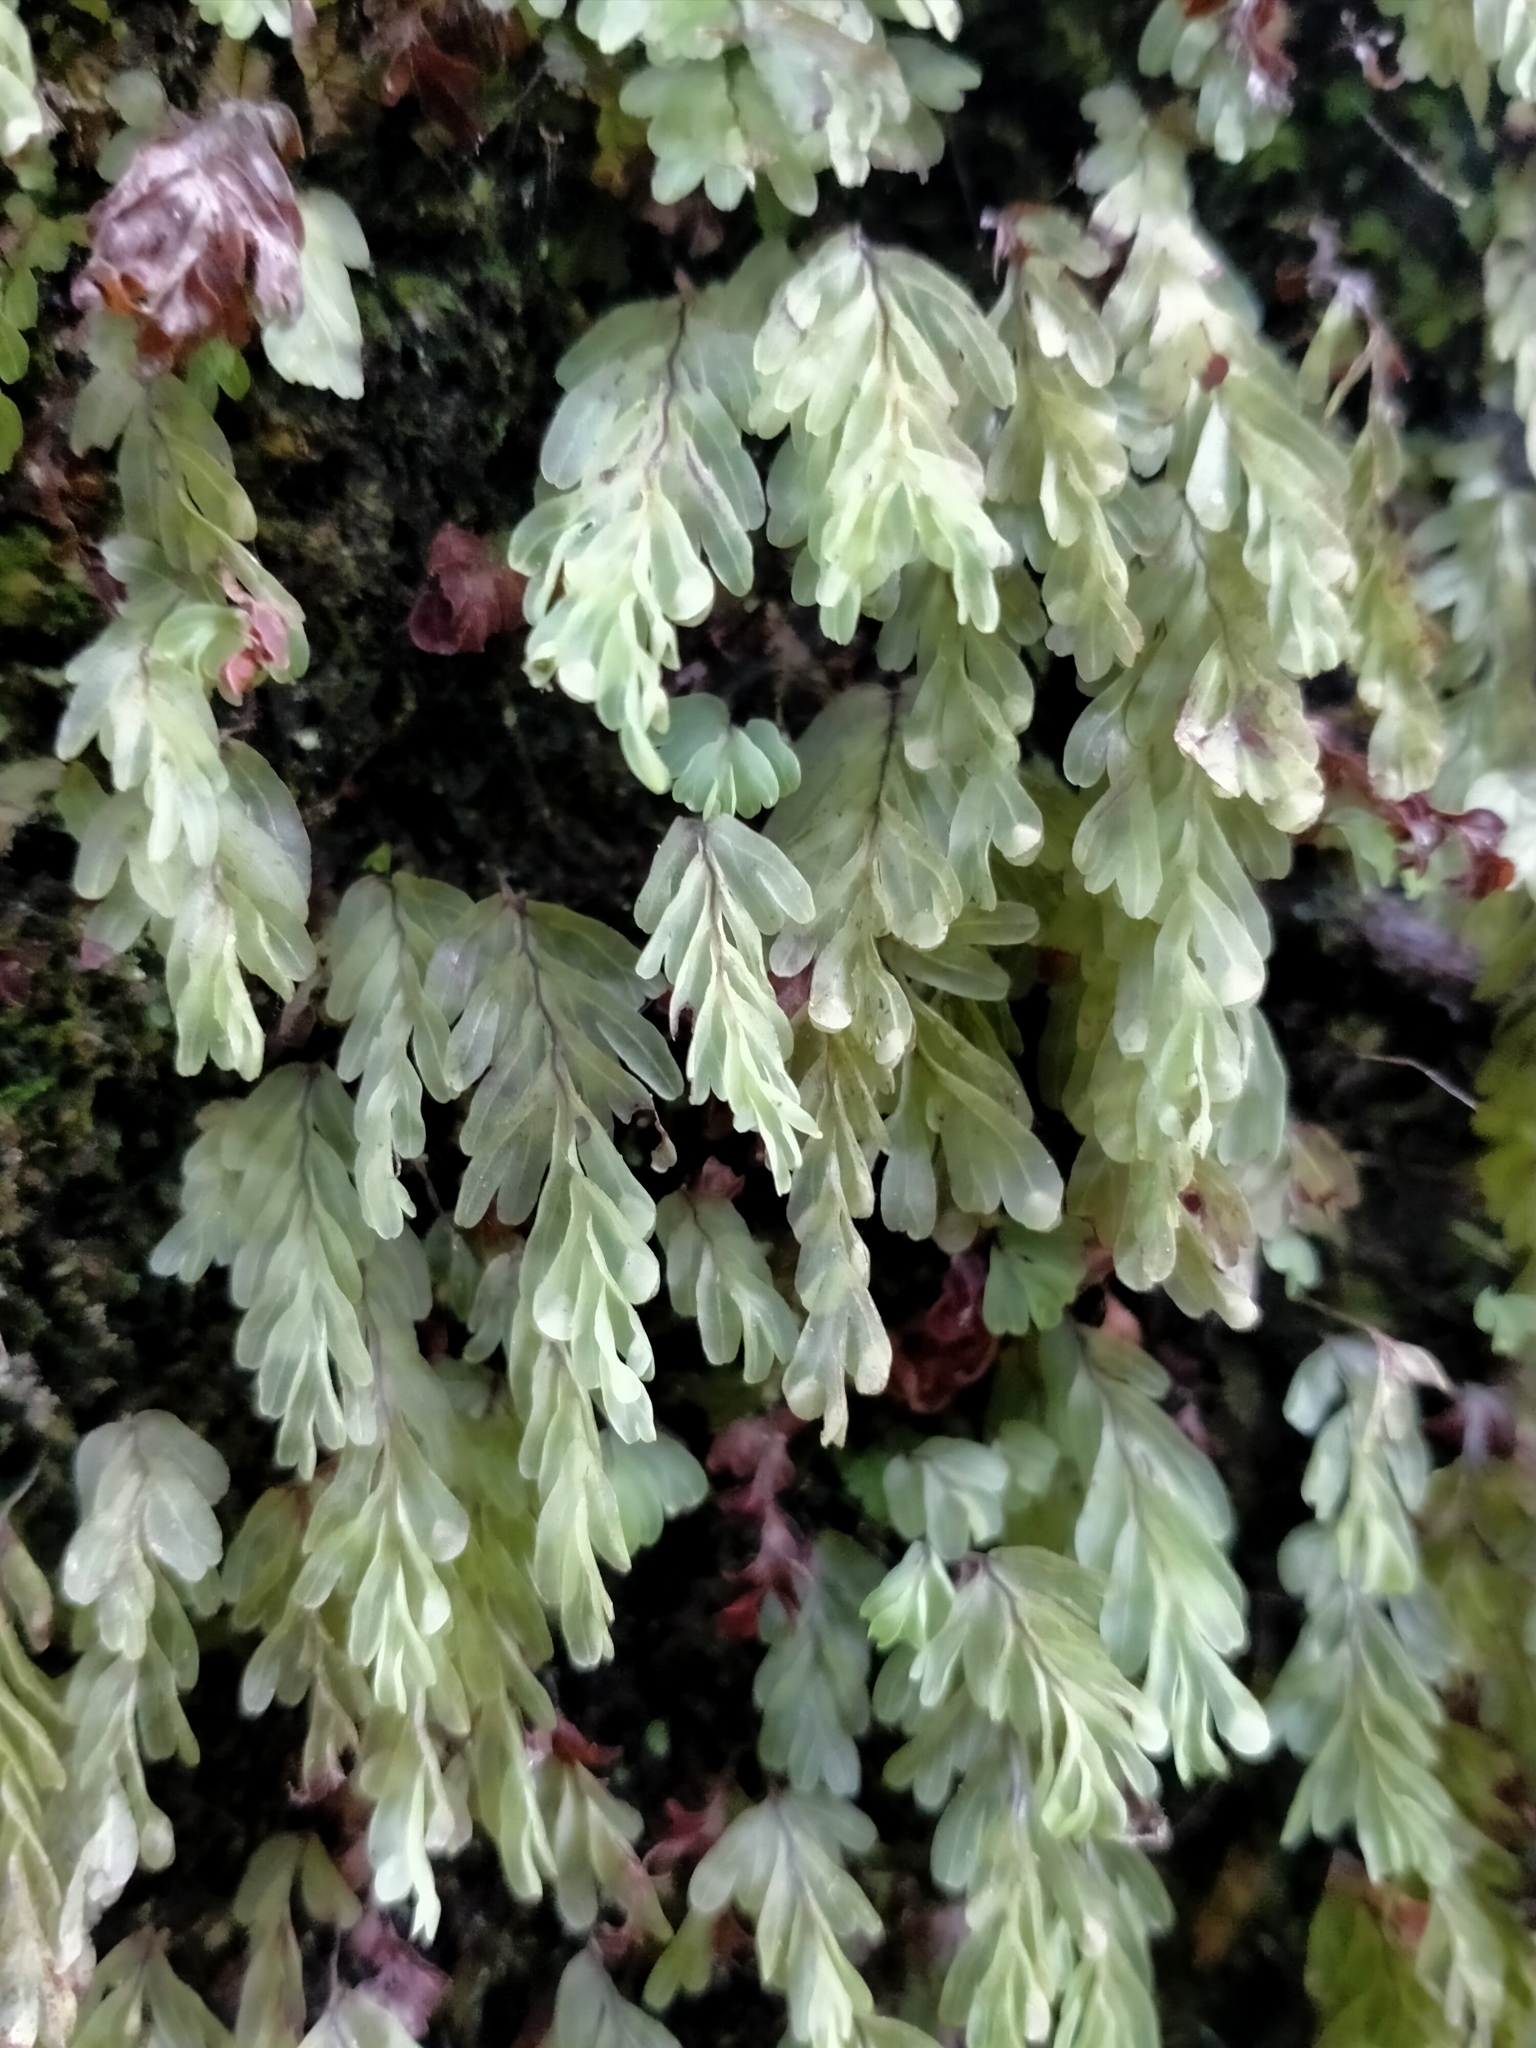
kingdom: Plantae
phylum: Tracheophyta
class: Polypodiopsida
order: Hymenophyllales
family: Hymenophyllaceae
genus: Hymenophyllum
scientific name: Hymenophyllum rarum
